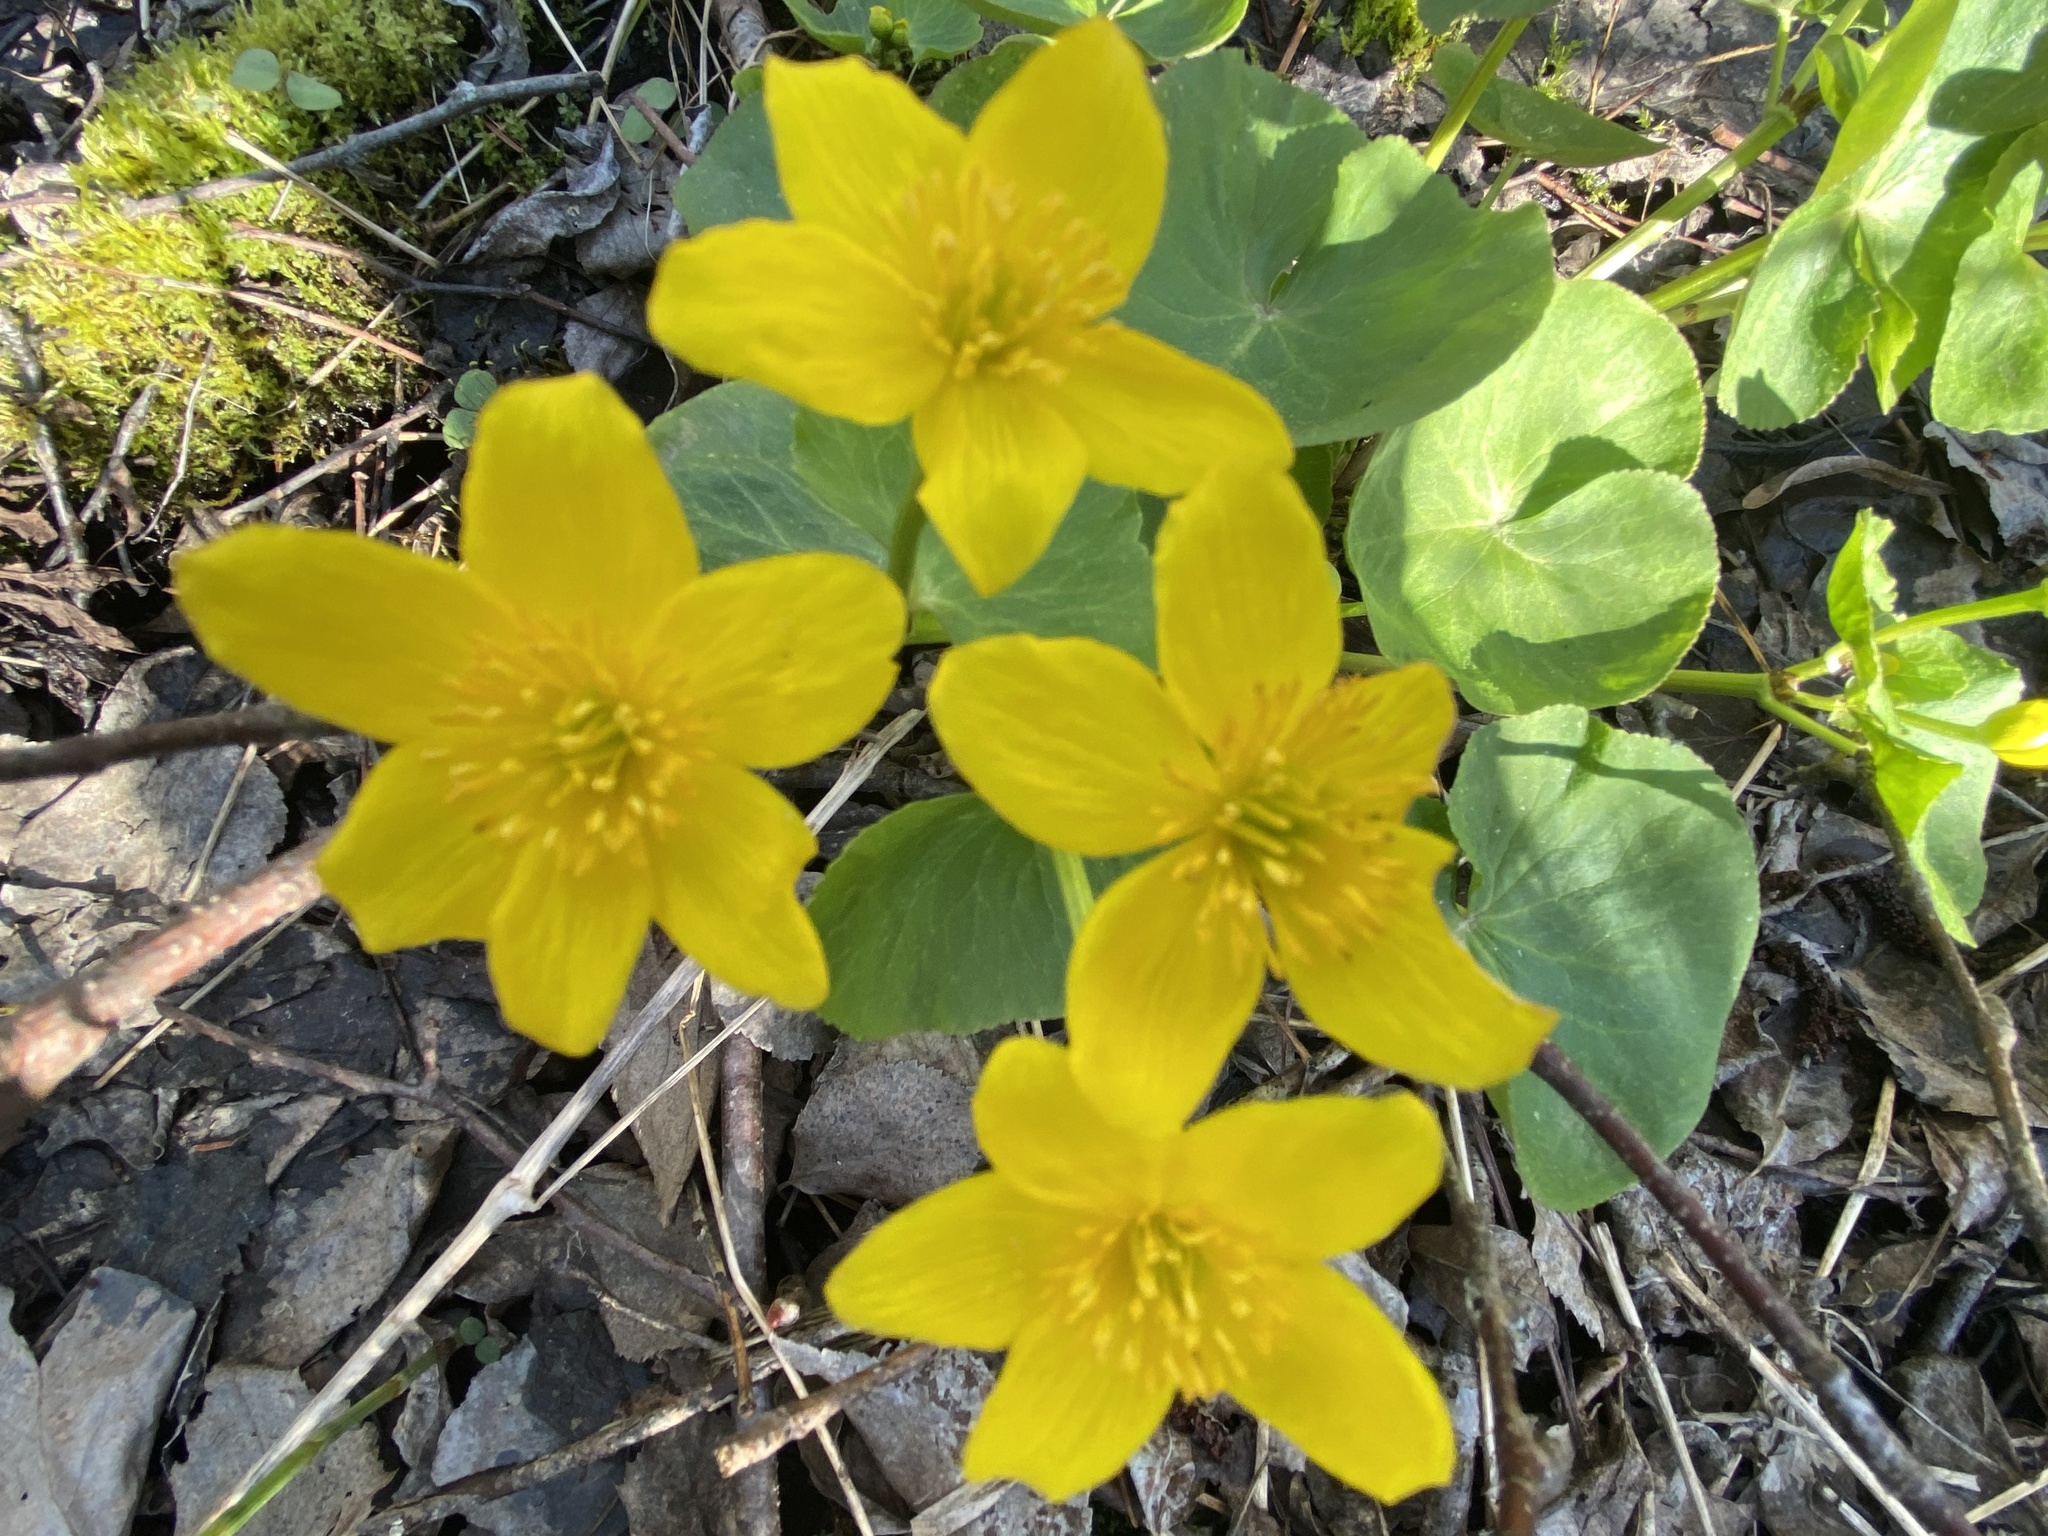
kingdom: Plantae
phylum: Tracheophyta
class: Magnoliopsida
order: Ranunculales
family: Ranunculaceae
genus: Caltha
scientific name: Caltha palustris
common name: Marsh marigold
